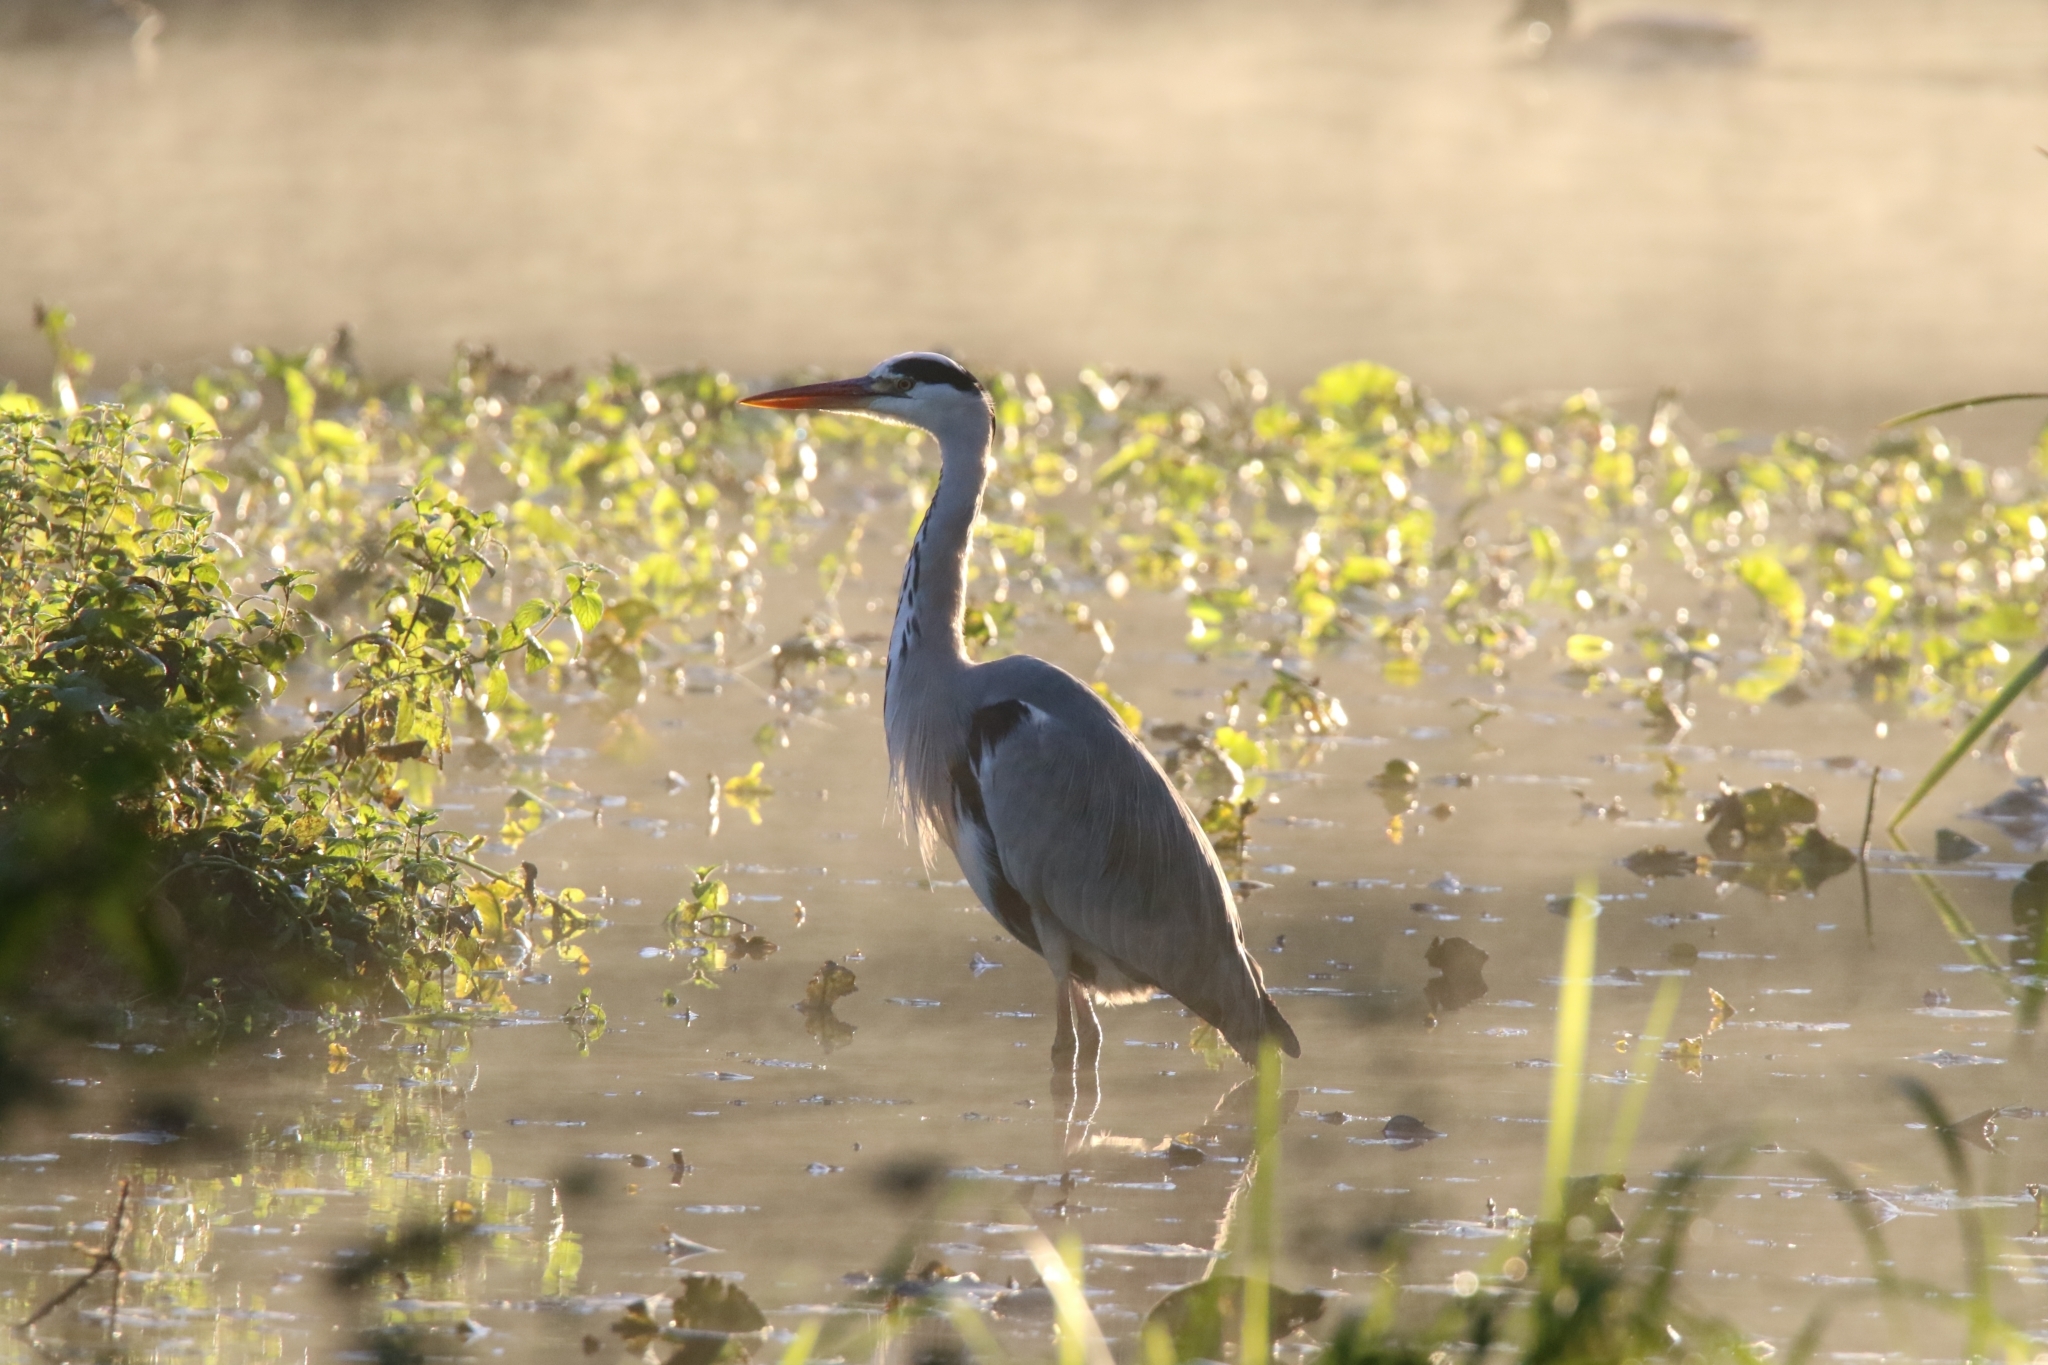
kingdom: Animalia
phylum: Chordata
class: Aves
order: Pelecaniformes
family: Ardeidae
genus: Ardea
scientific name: Ardea cinerea
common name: Grey heron
